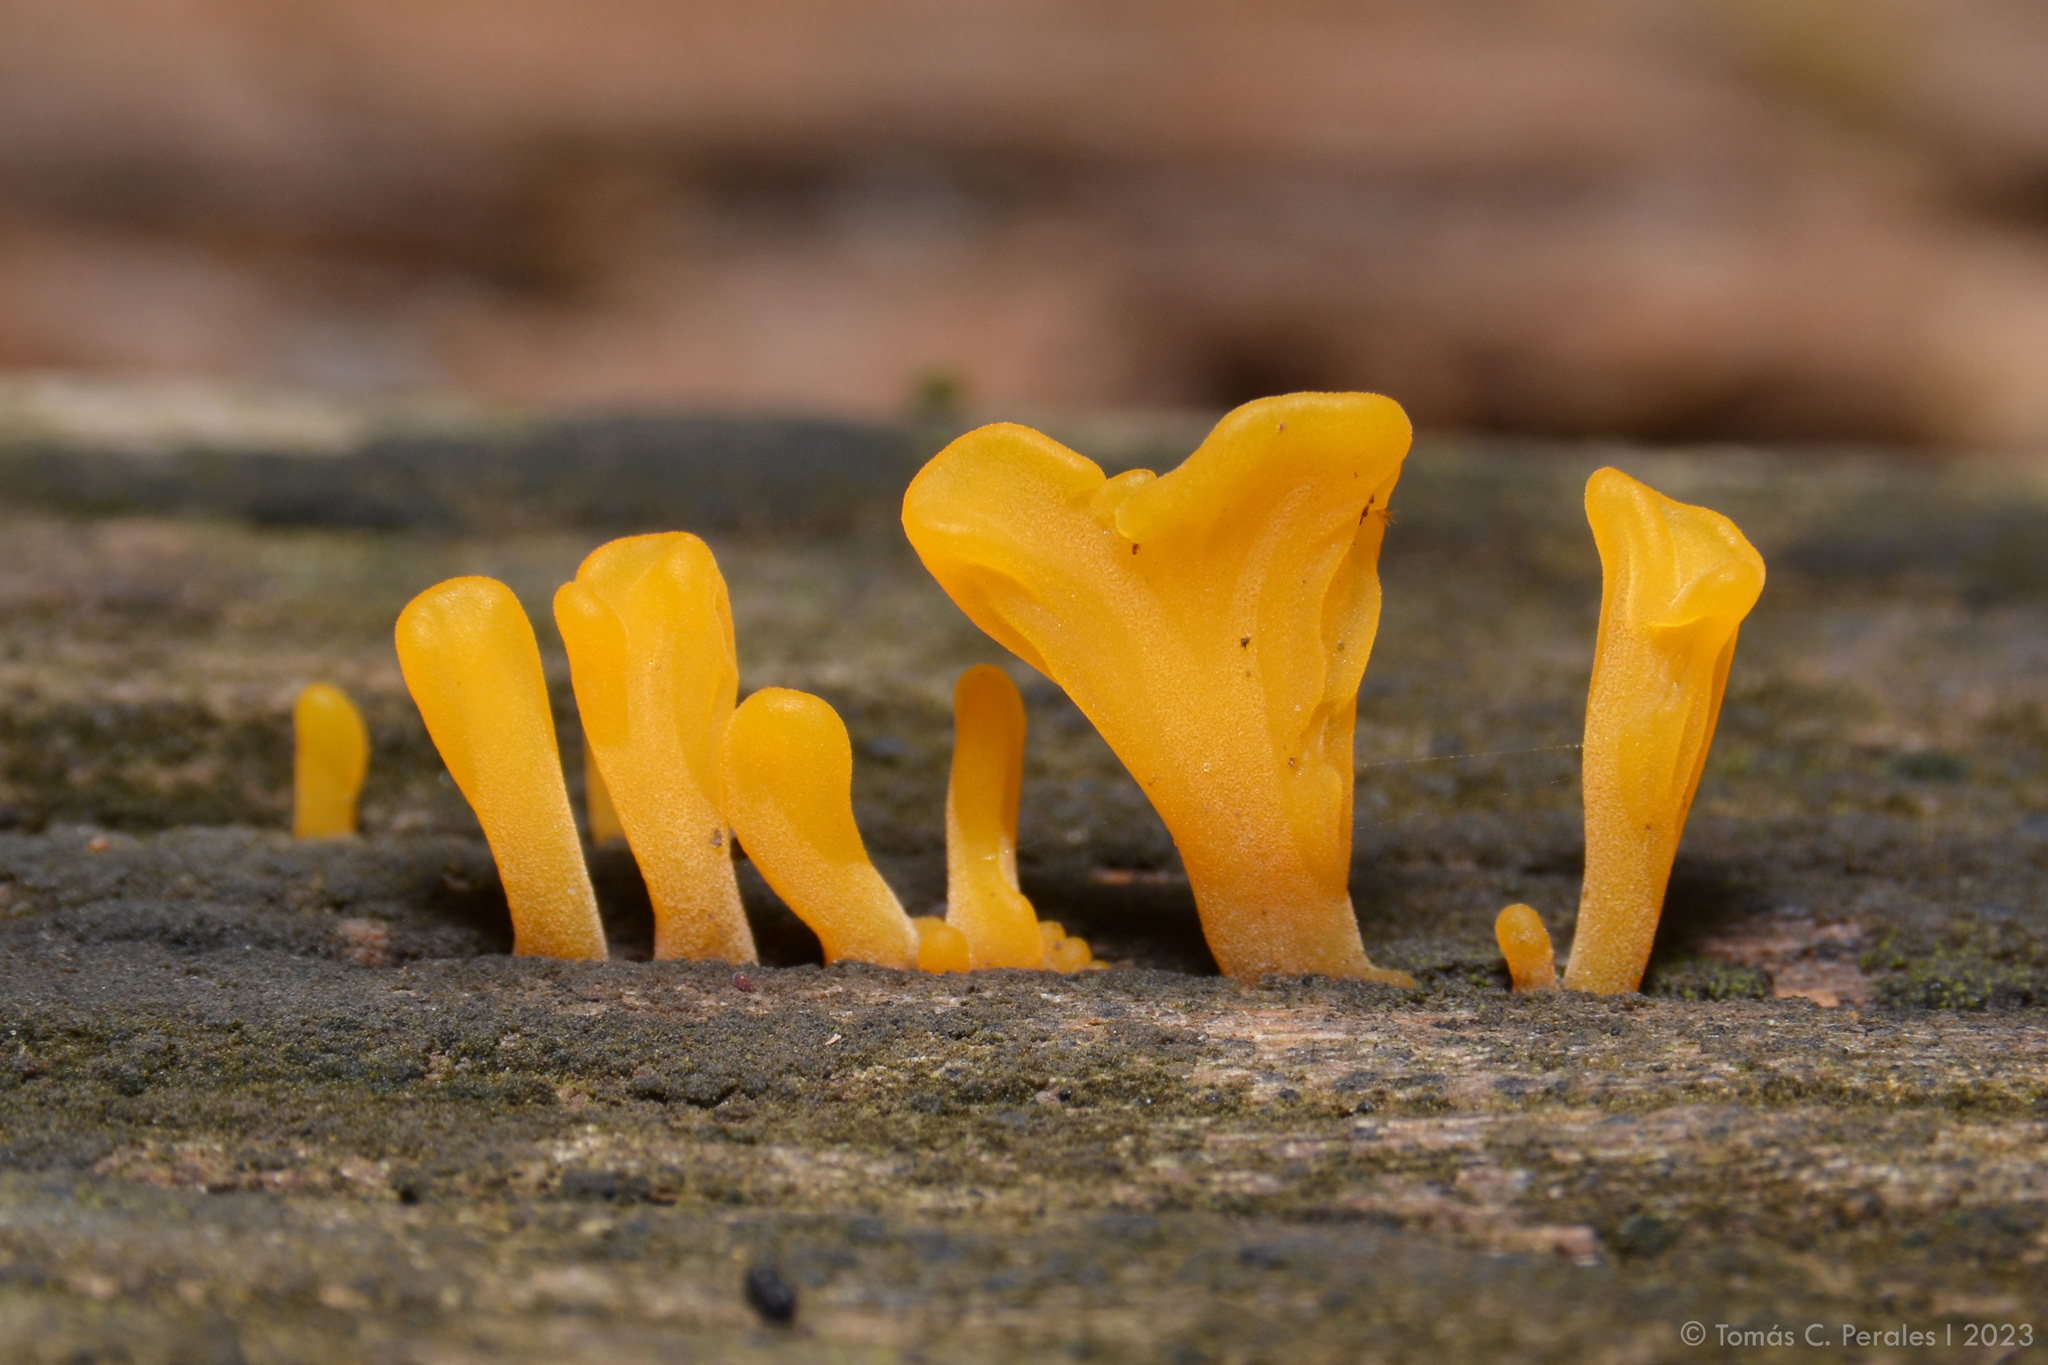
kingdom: Fungi
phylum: Basidiomycota
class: Dacrymycetes
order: Dacrymycetales
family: Dacrymycetaceae
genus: Dacrymyces
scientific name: Dacrymyces spathularius
